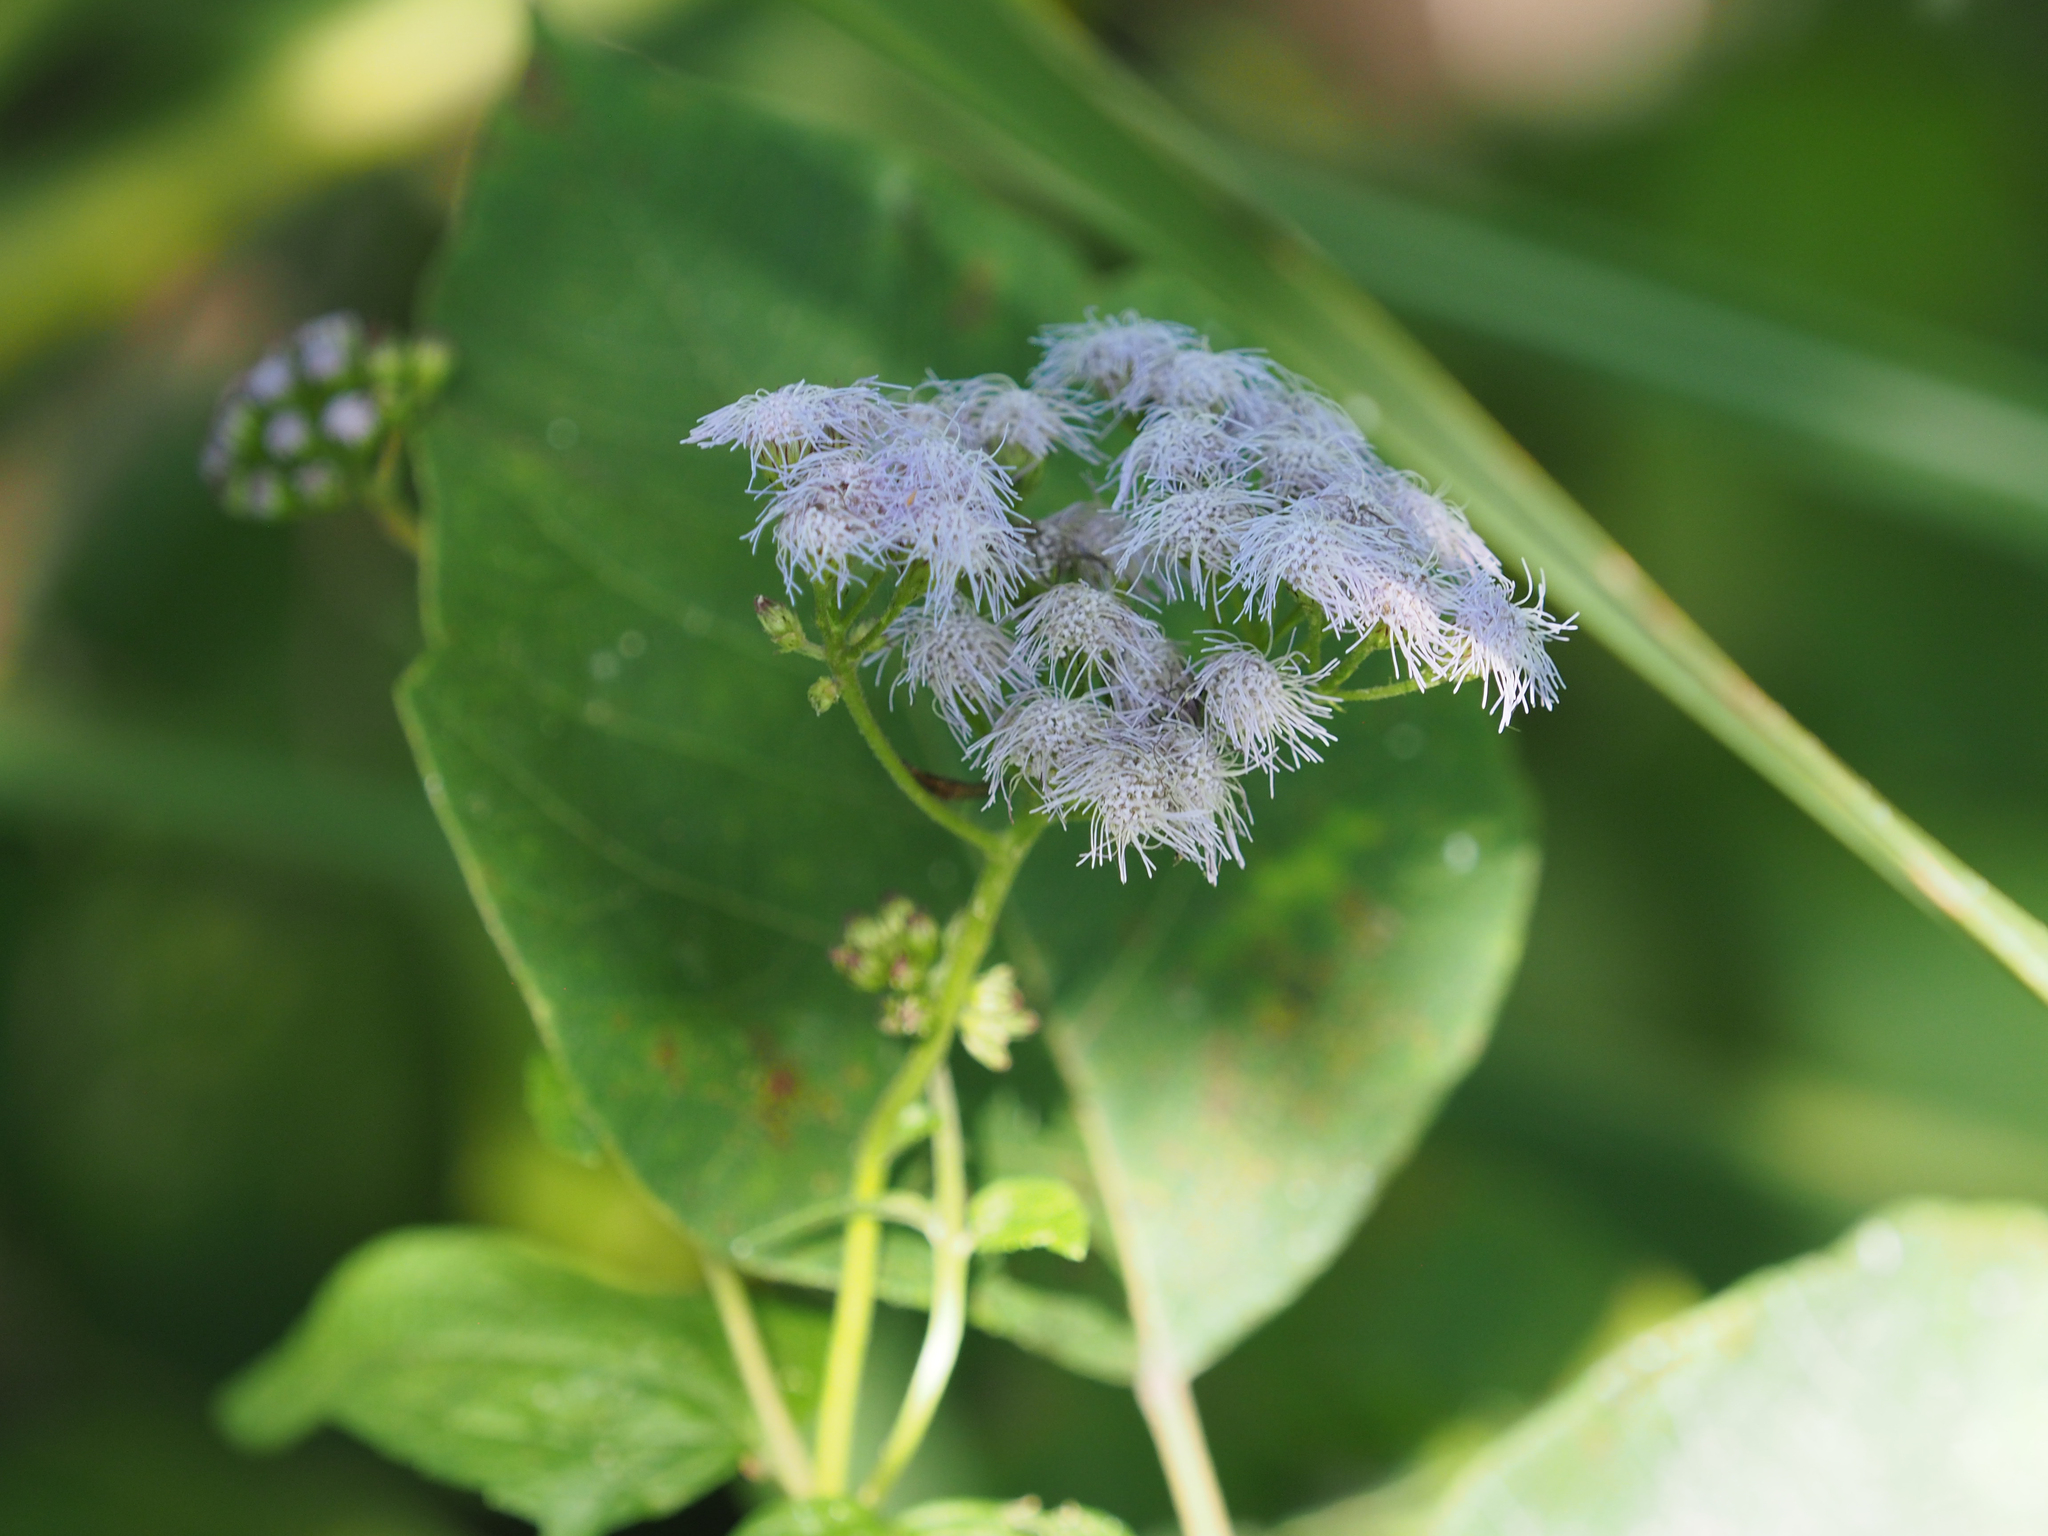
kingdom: Plantae
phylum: Tracheophyta
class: Magnoliopsida
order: Asterales
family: Asteraceae
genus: Conoclinium
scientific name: Conoclinium coelestinum
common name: Blue mistflower
